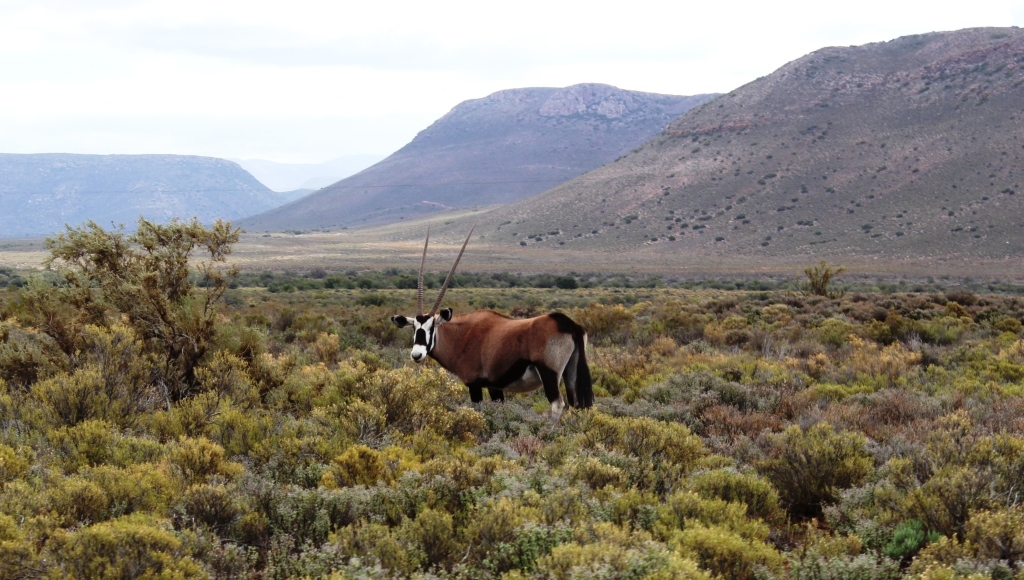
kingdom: Animalia
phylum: Chordata
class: Mammalia
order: Artiodactyla
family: Bovidae
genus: Oryx
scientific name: Oryx gazella
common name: Gemsbok
